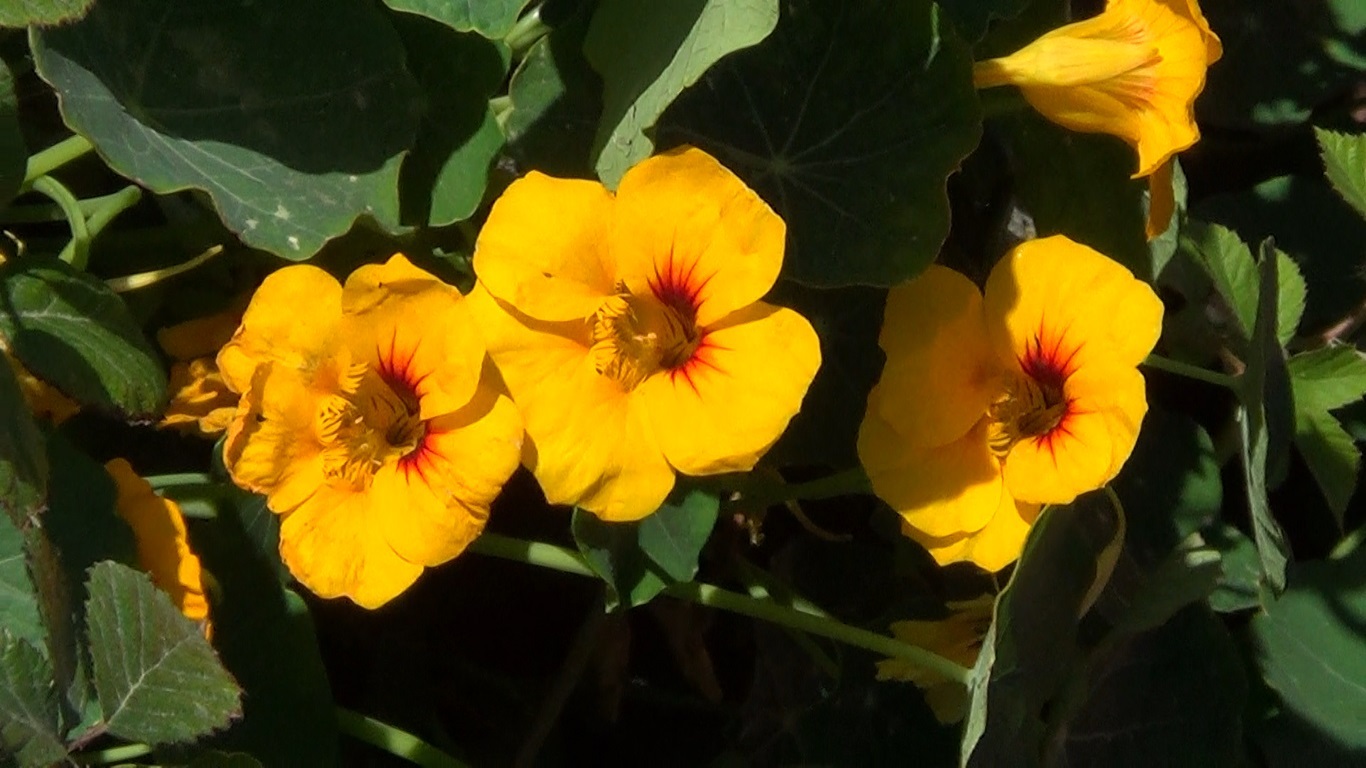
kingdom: Plantae
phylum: Tracheophyta
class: Magnoliopsida
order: Brassicales
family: Tropaeolaceae
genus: Tropaeolum
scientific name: Tropaeolum majus
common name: Nasturtium
